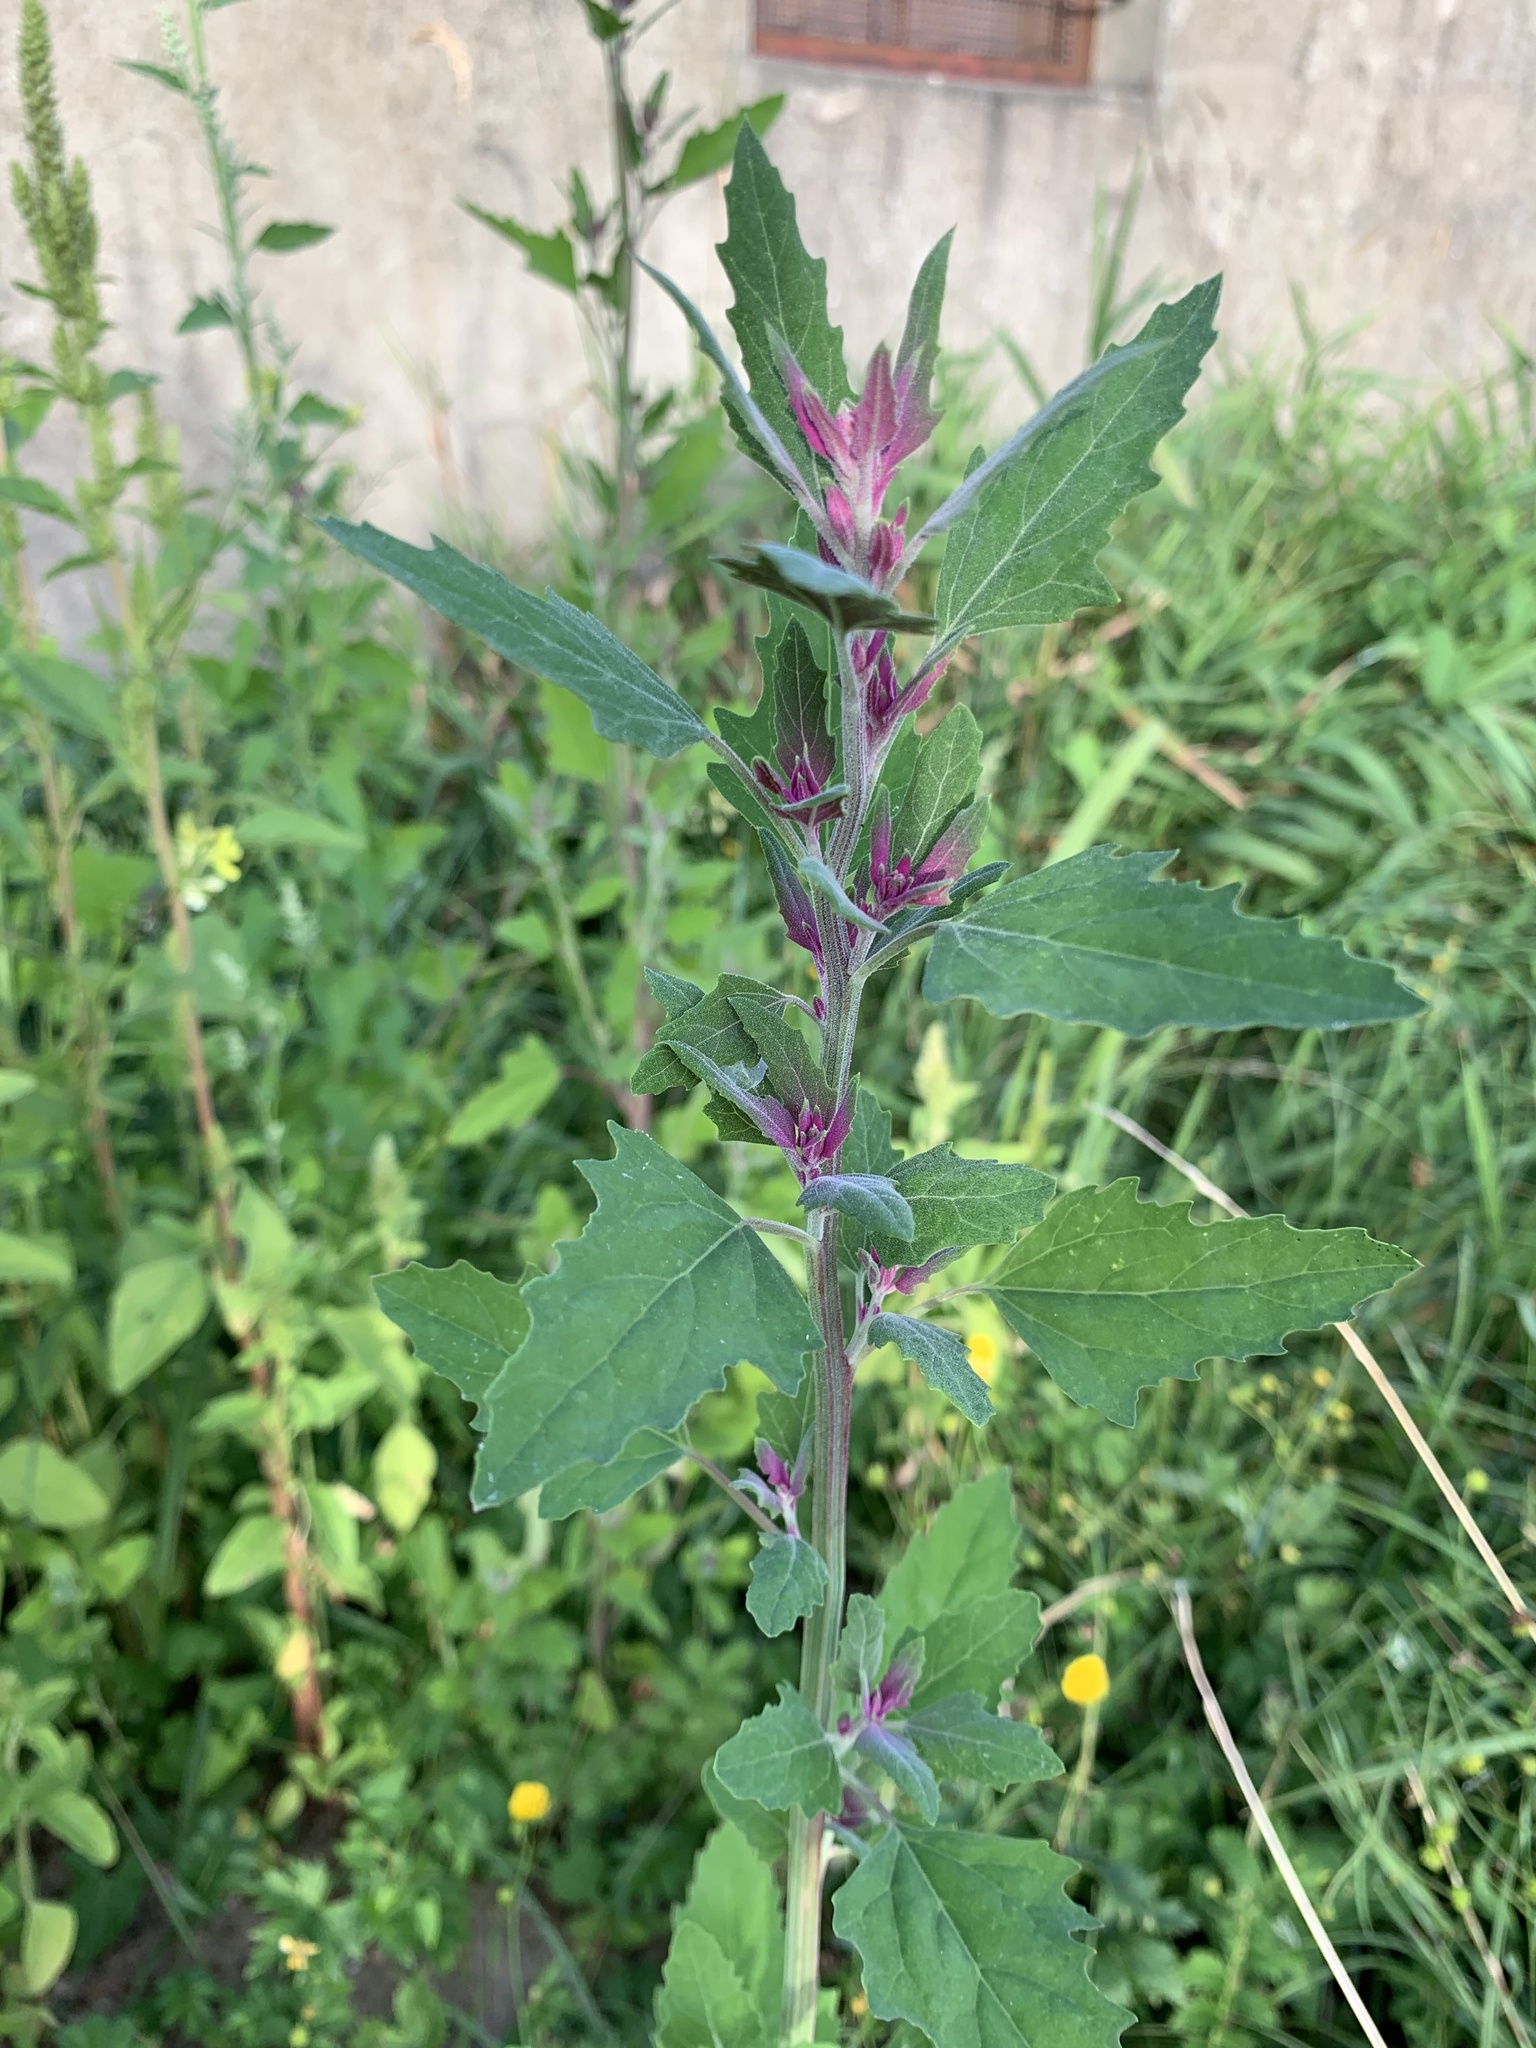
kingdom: Plantae
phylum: Tracheophyta
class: Magnoliopsida
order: Caryophyllales
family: Amaranthaceae
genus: Chenopodium
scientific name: Chenopodium giganteum
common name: Magentaspreen
